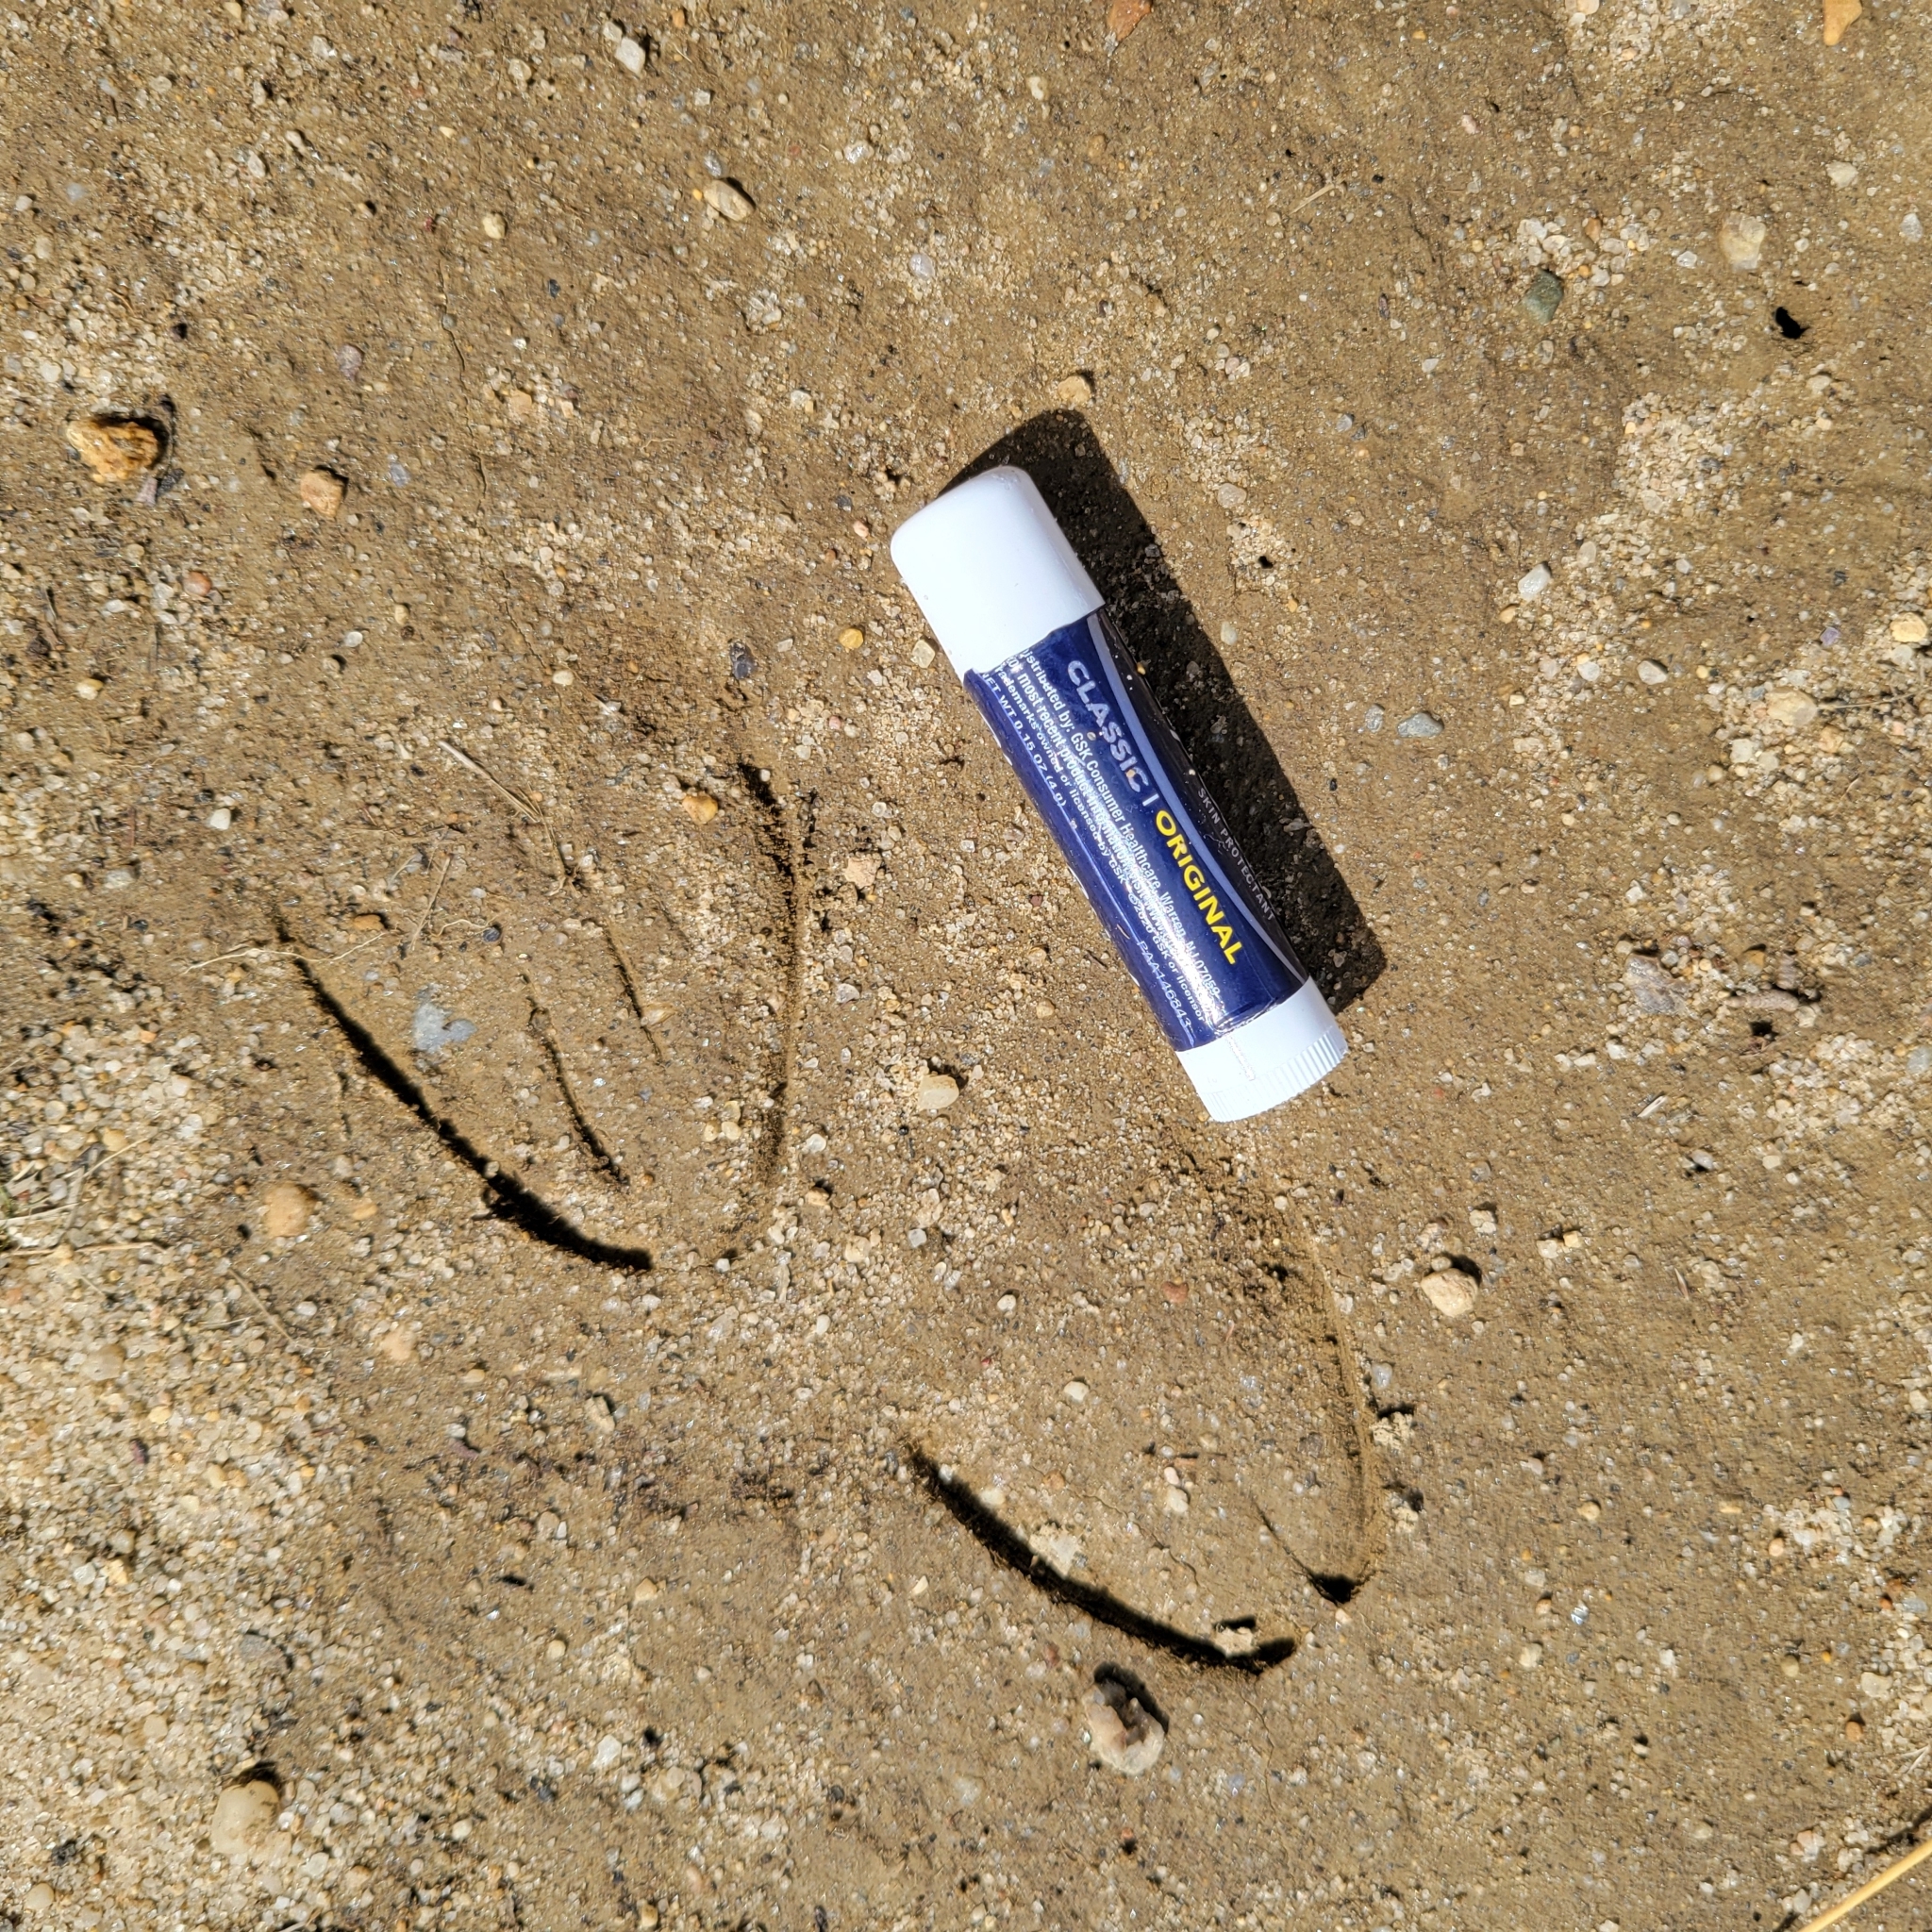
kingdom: Animalia
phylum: Chordata
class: Mammalia
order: Artiodactyla
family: Cervidae
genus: Odocoileus
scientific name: Odocoileus virginianus
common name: White-tailed deer
